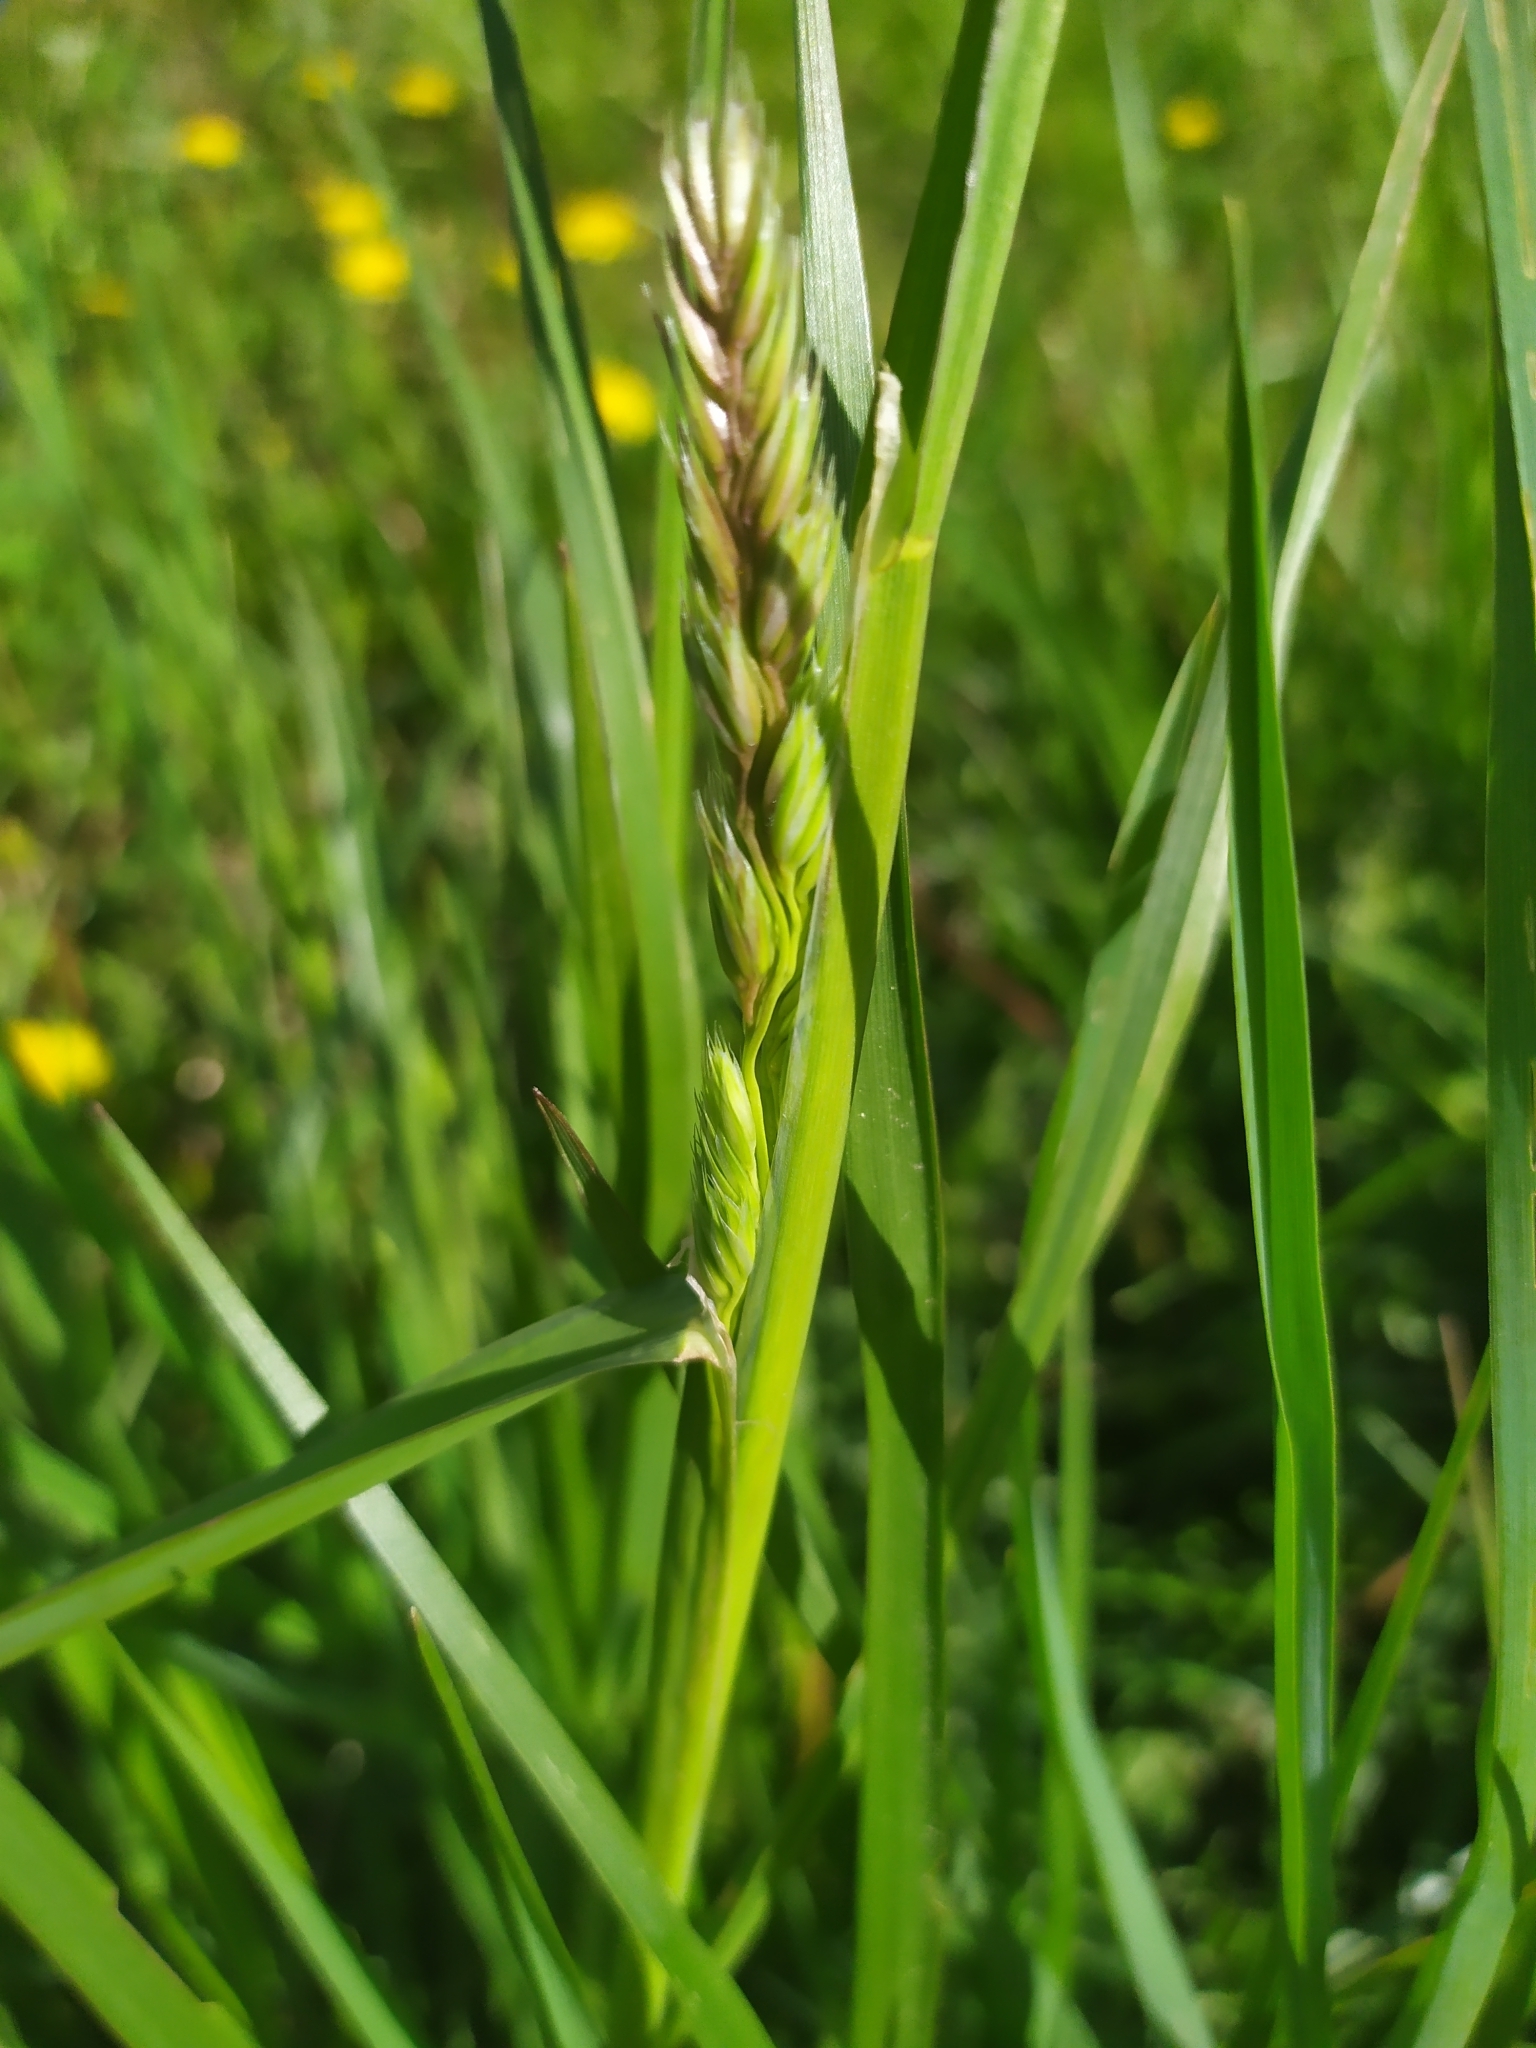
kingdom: Plantae
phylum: Tracheophyta
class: Liliopsida
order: Poales
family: Poaceae
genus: Dactylis
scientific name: Dactylis glomerata
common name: Orchardgrass
